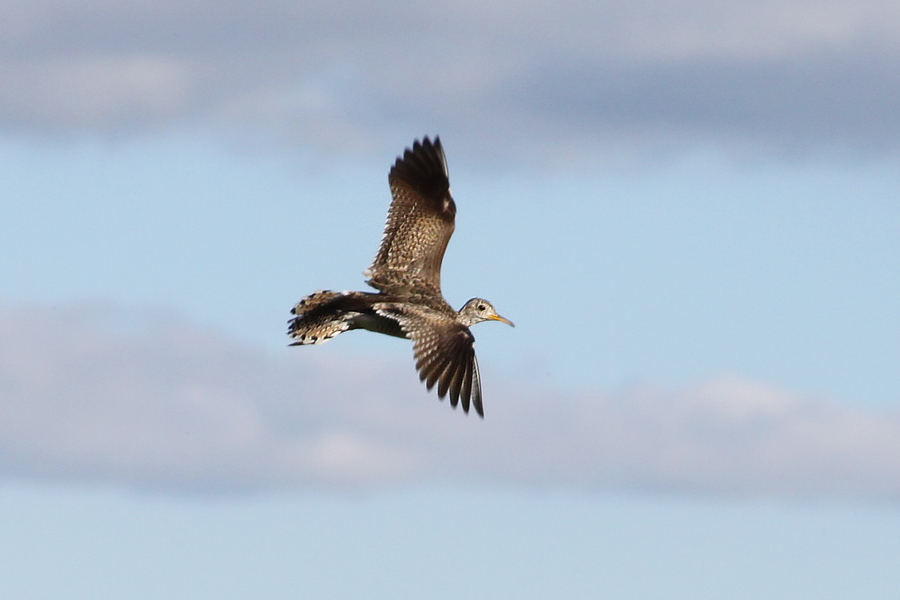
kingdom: Animalia
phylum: Chordata
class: Aves
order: Charadriiformes
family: Scolopacidae
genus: Bartramia
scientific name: Bartramia longicauda
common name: Upland sandpiper
